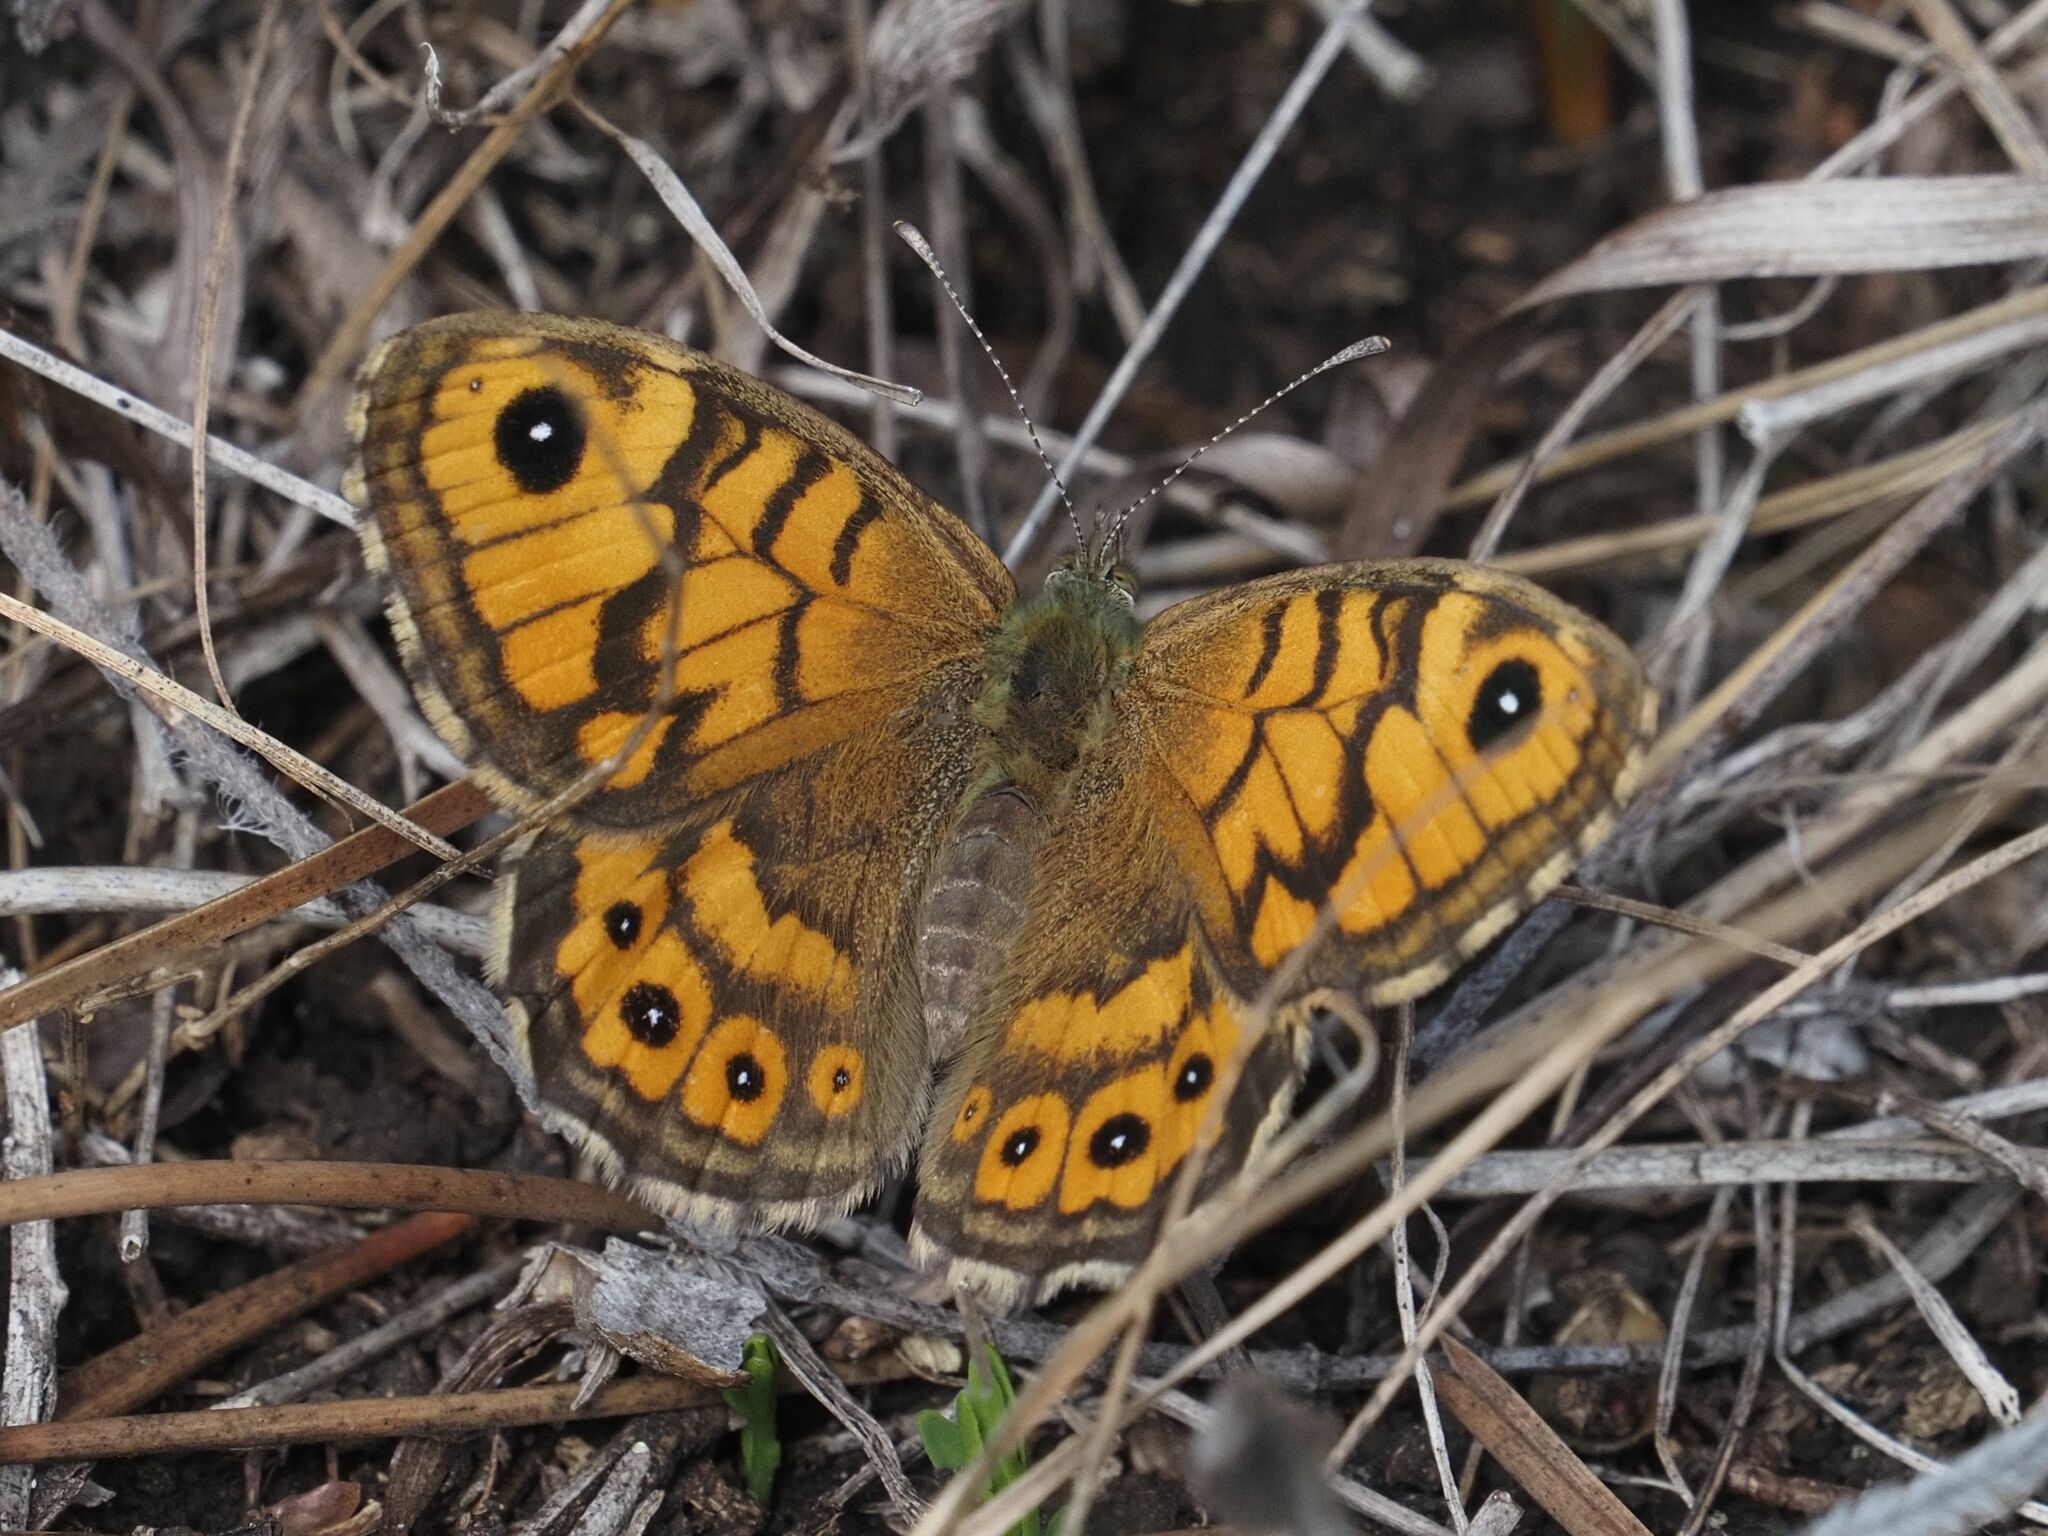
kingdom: Animalia
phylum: Arthropoda
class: Insecta
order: Lepidoptera
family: Nymphalidae
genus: Pararge
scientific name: Pararge Lasiommata megera
